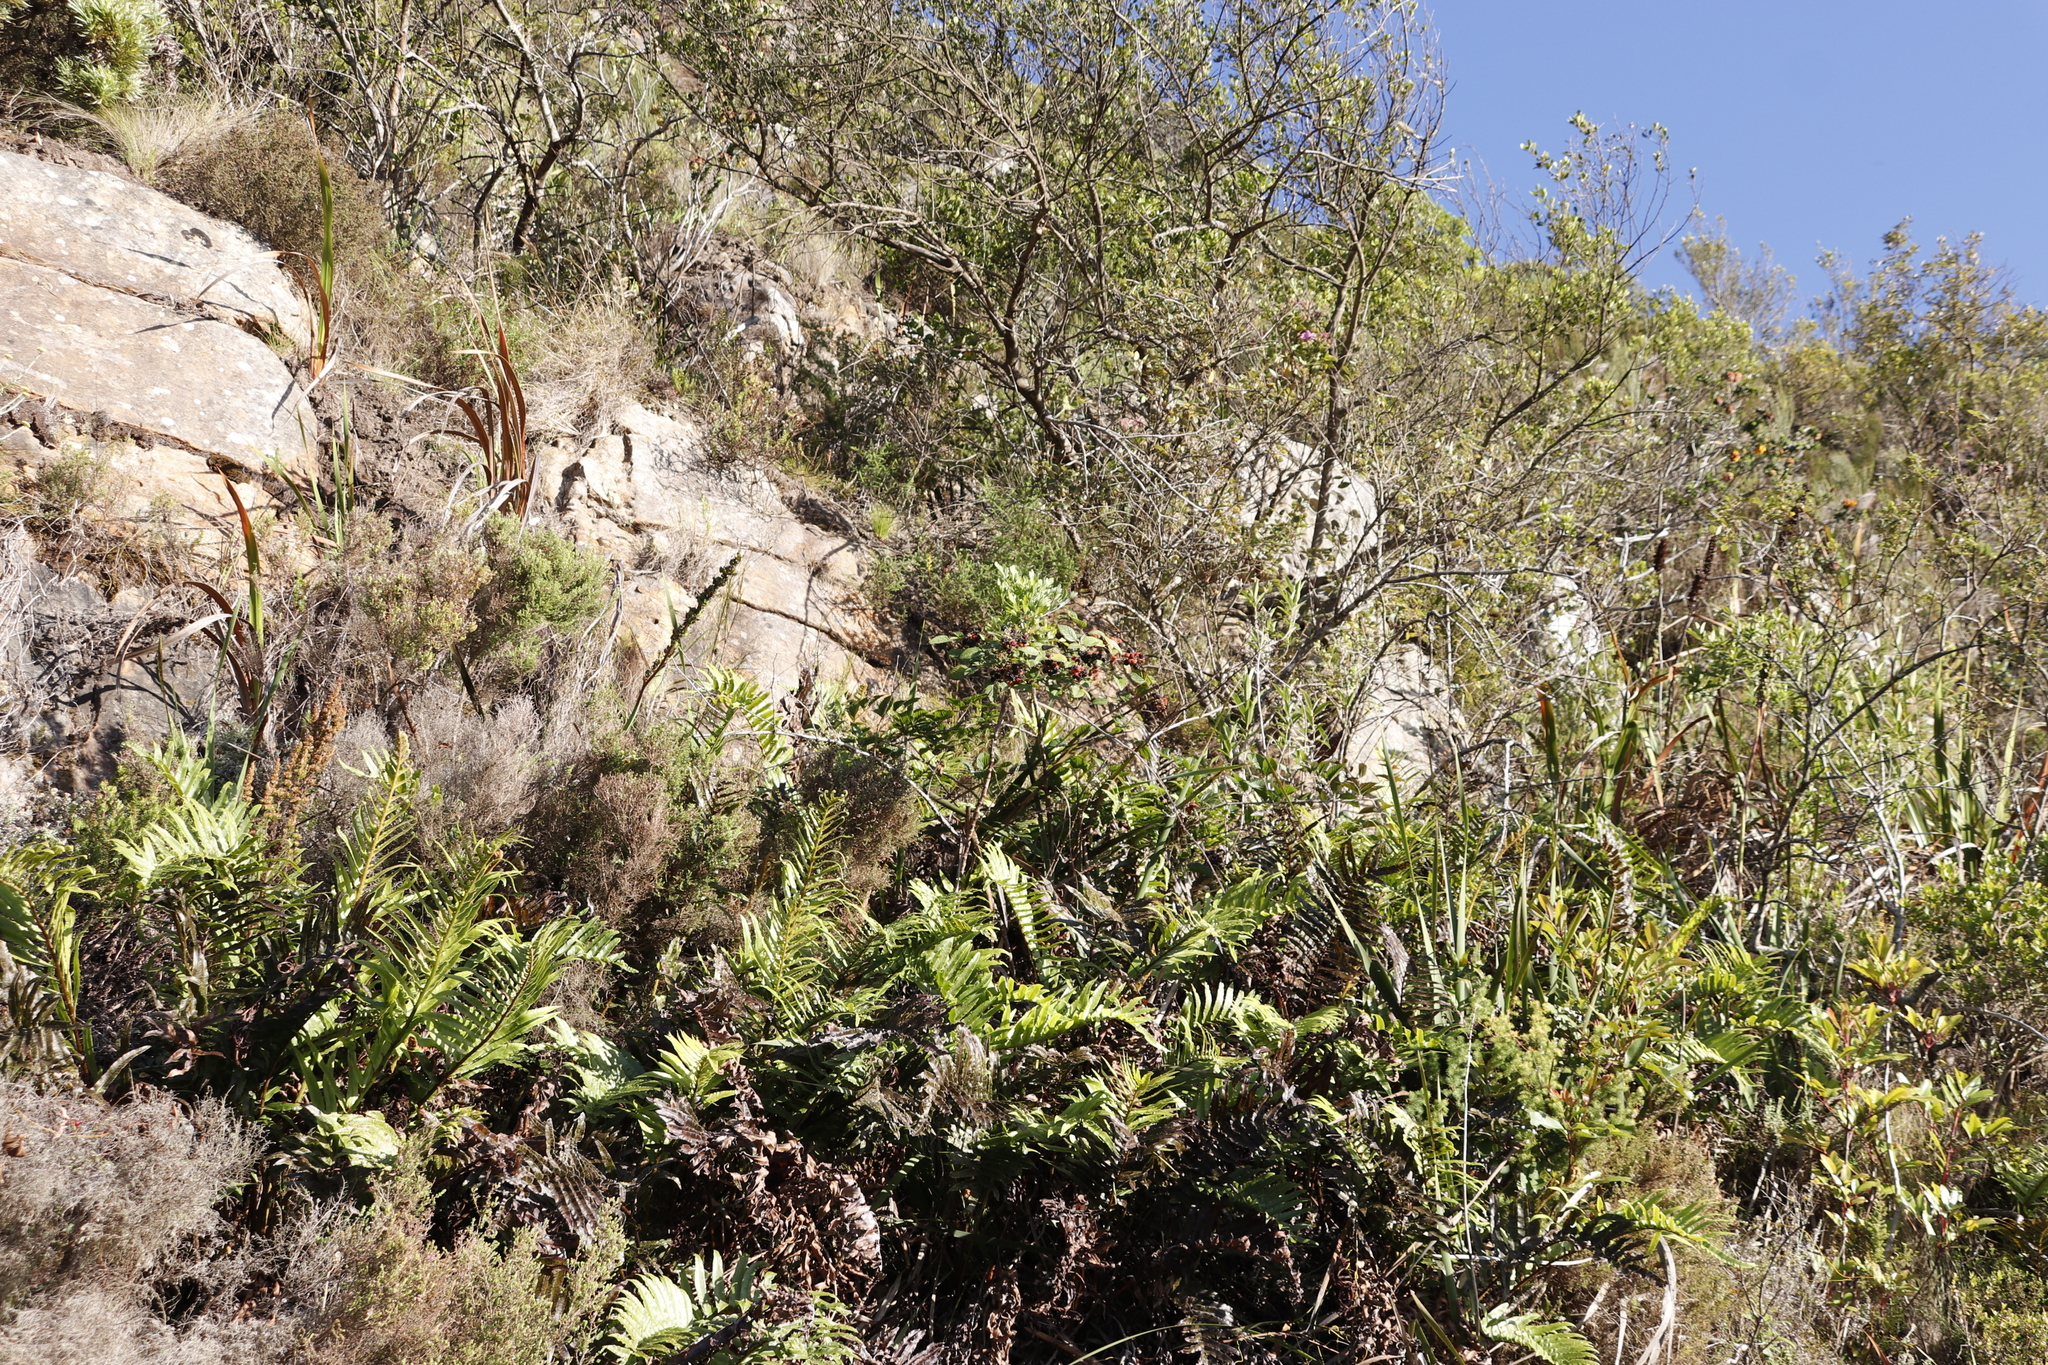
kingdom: Plantae
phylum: Tracheophyta
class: Polypodiopsida
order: Polypodiales
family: Blechnaceae
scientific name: Blechnaceae
